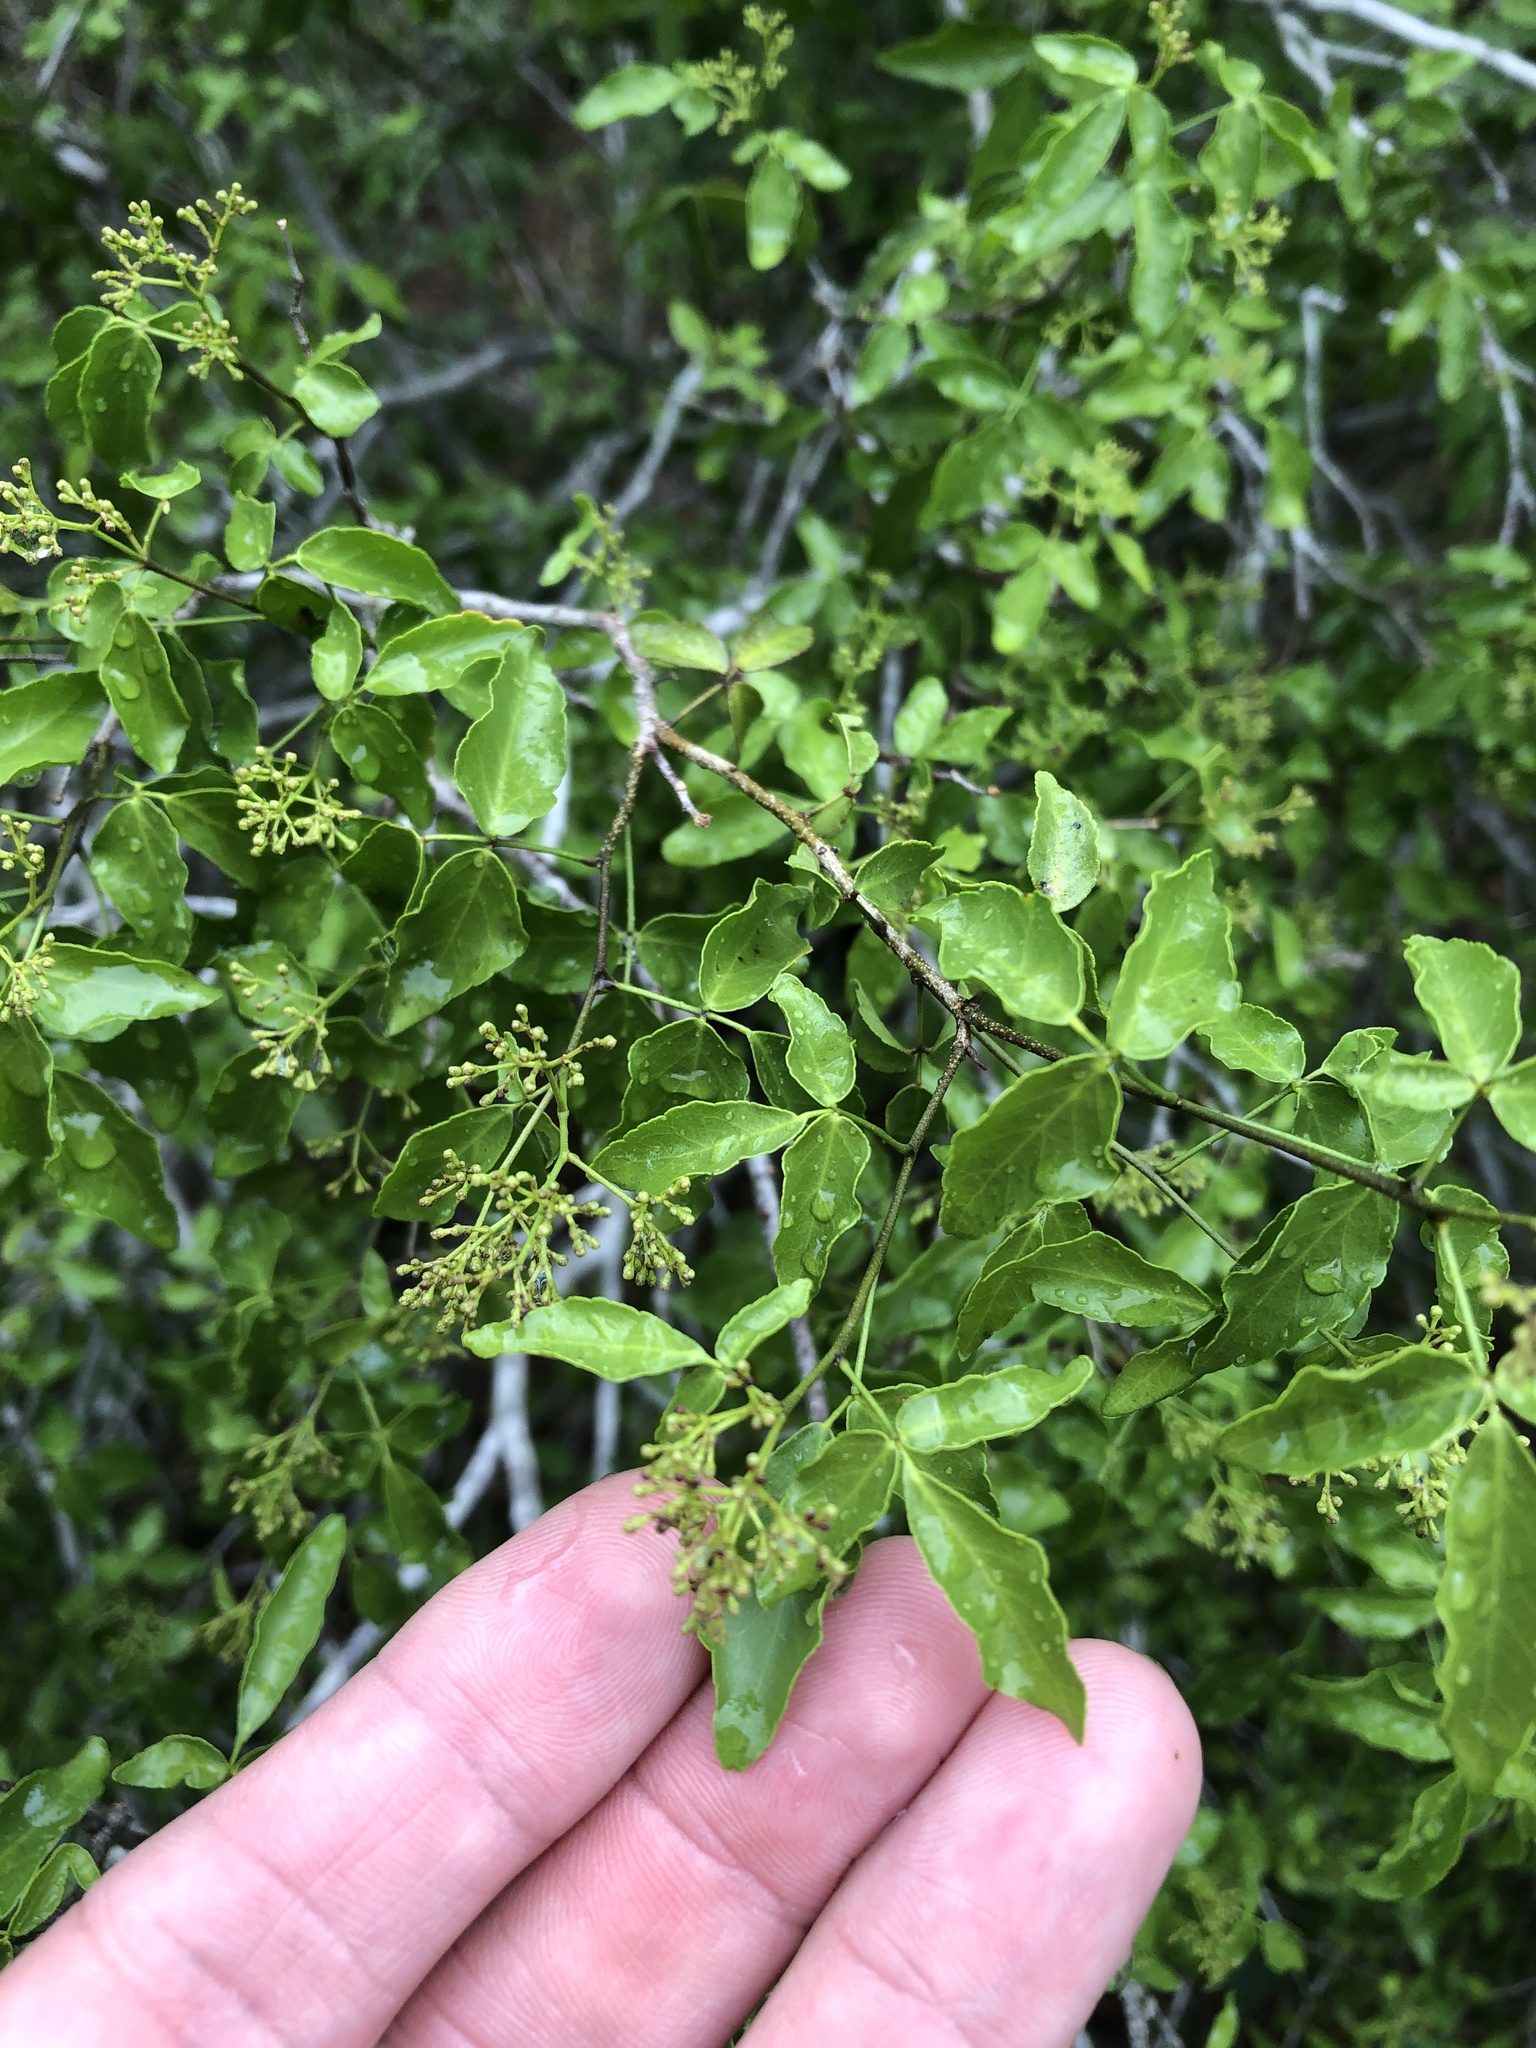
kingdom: Plantae
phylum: Tracheophyta
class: Magnoliopsida
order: Sapindales
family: Rutaceae
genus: Amyris
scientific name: Amyris texana
